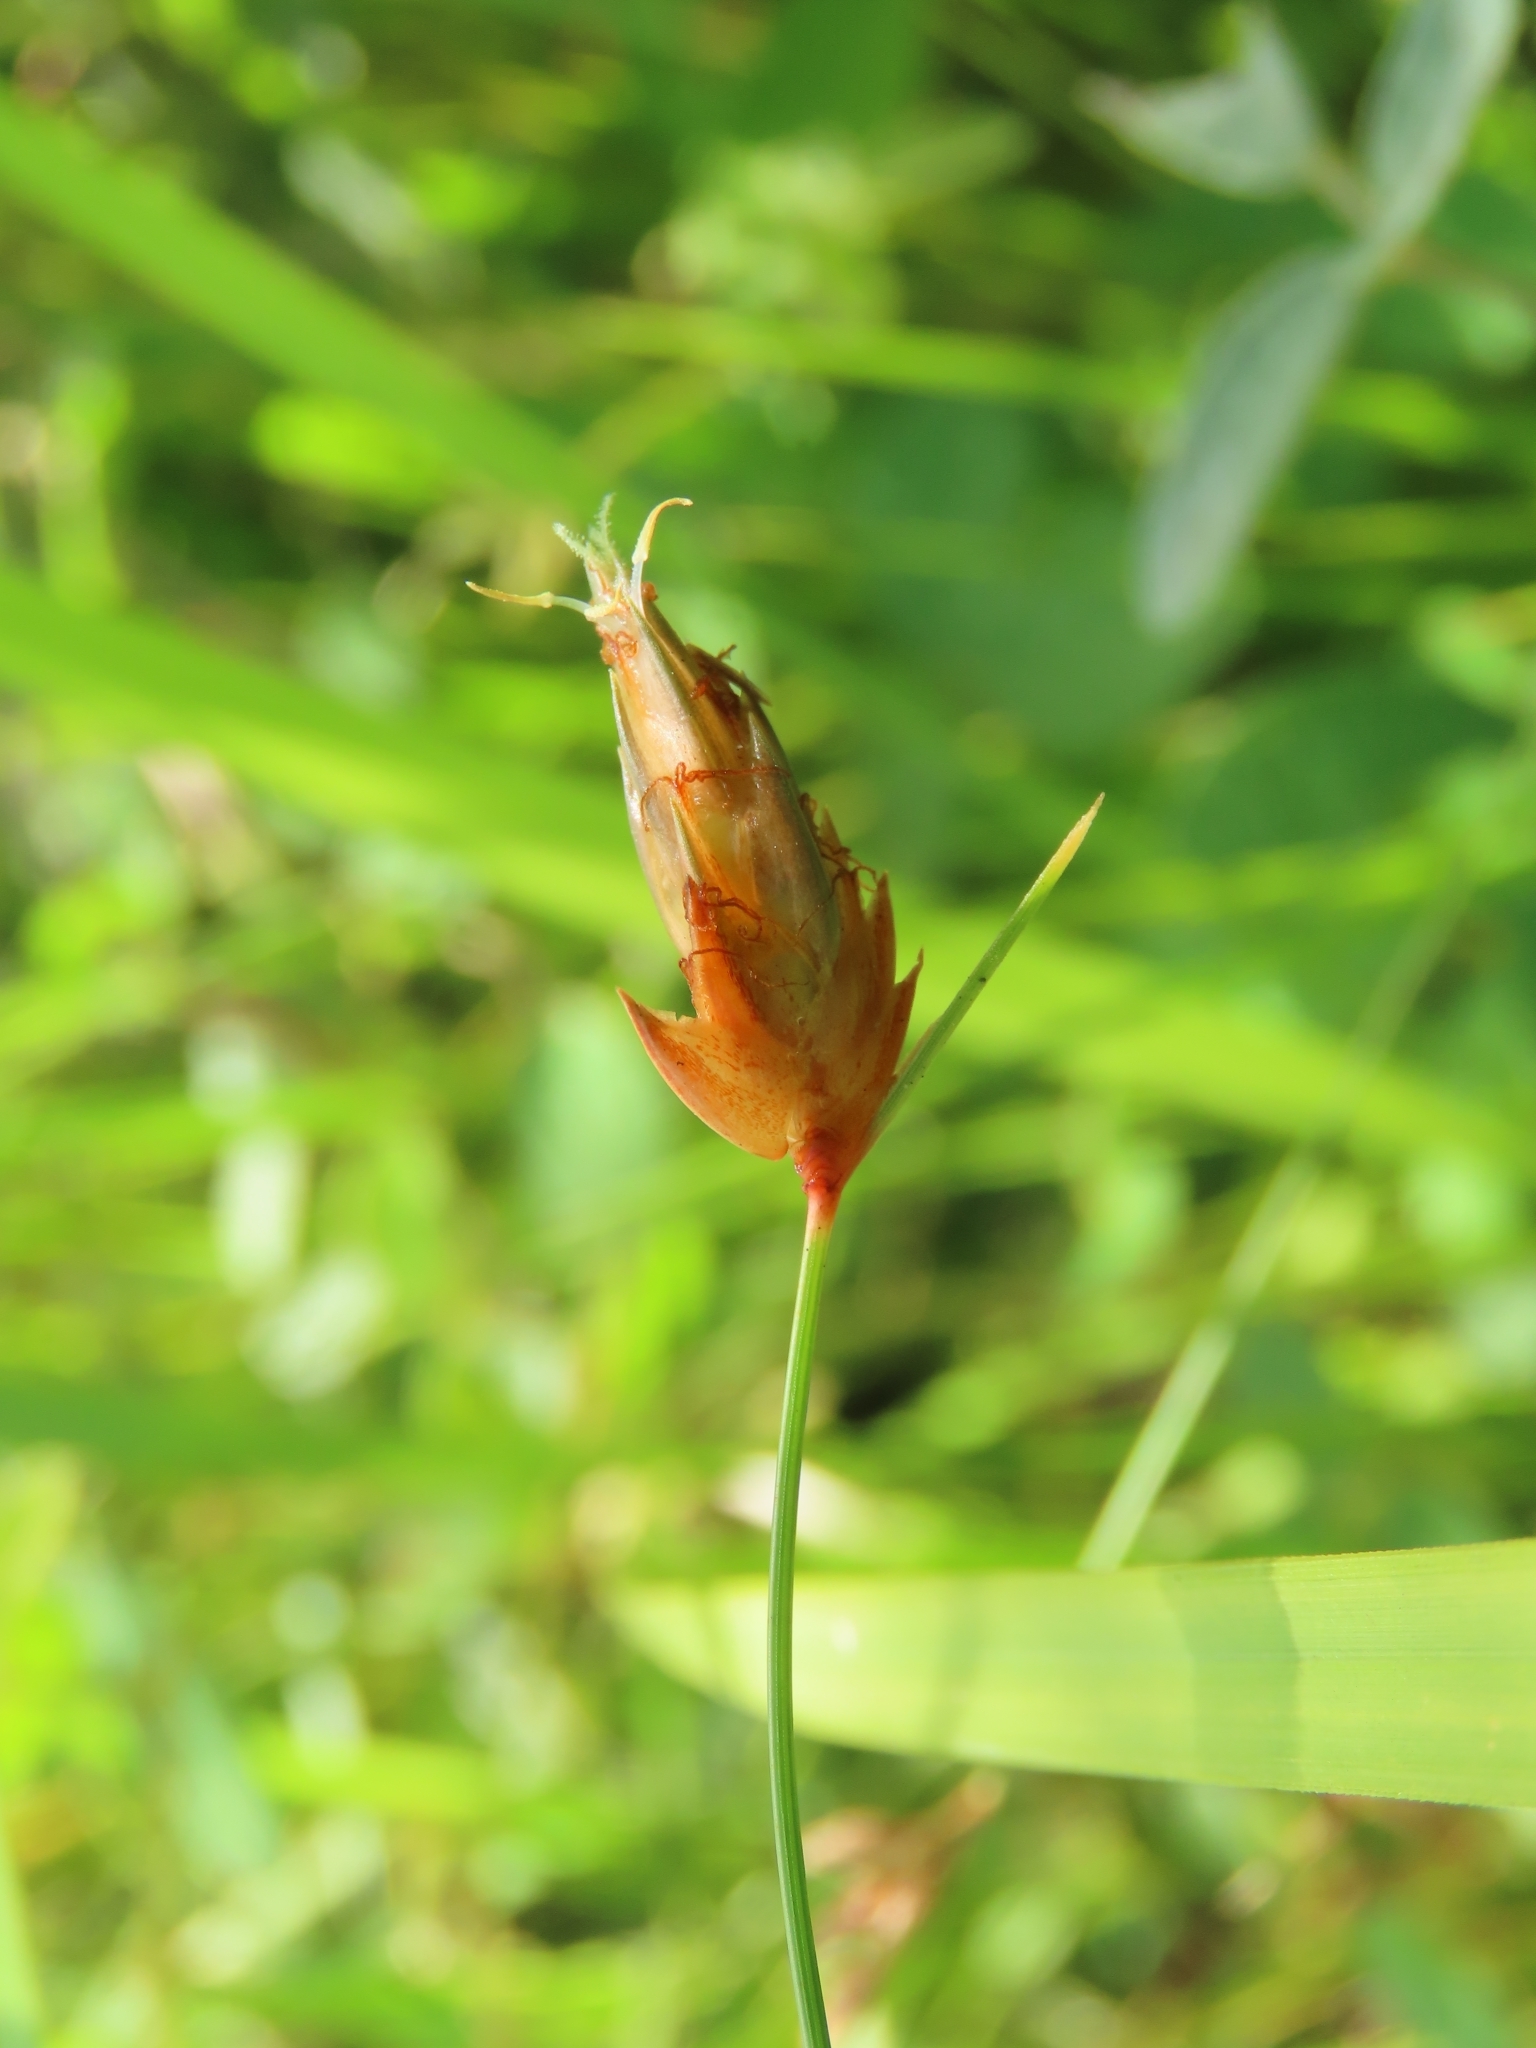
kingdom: Plantae
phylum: Tracheophyta
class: Liliopsida
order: Poales
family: Cyperaceae
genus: Abildgaardia
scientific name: Abildgaardia ovata
